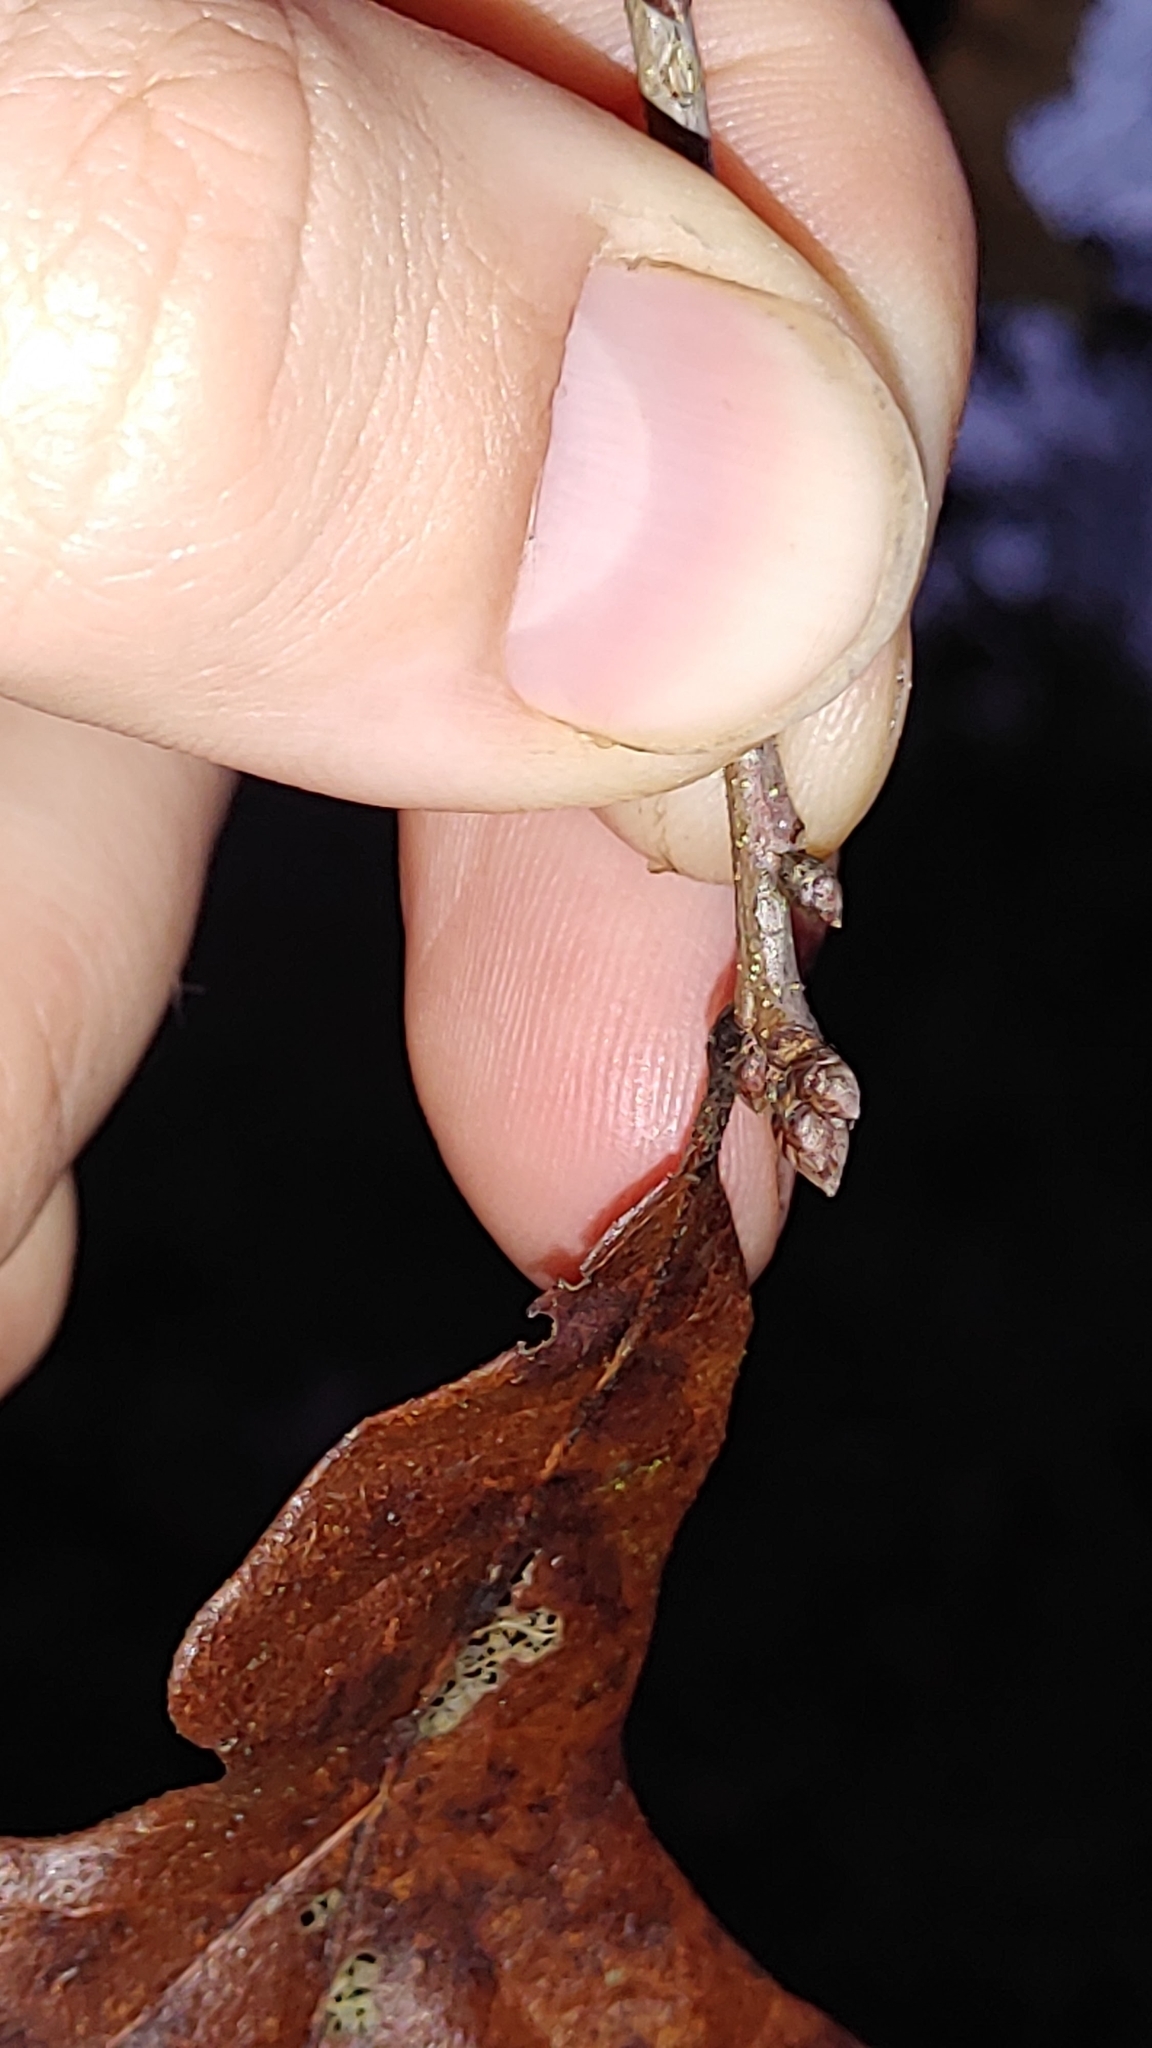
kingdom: Plantae
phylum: Tracheophyta
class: Magnoliopsida
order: Fagales
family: Fagaceae
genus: Quercus
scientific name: Quercus margaretiae
